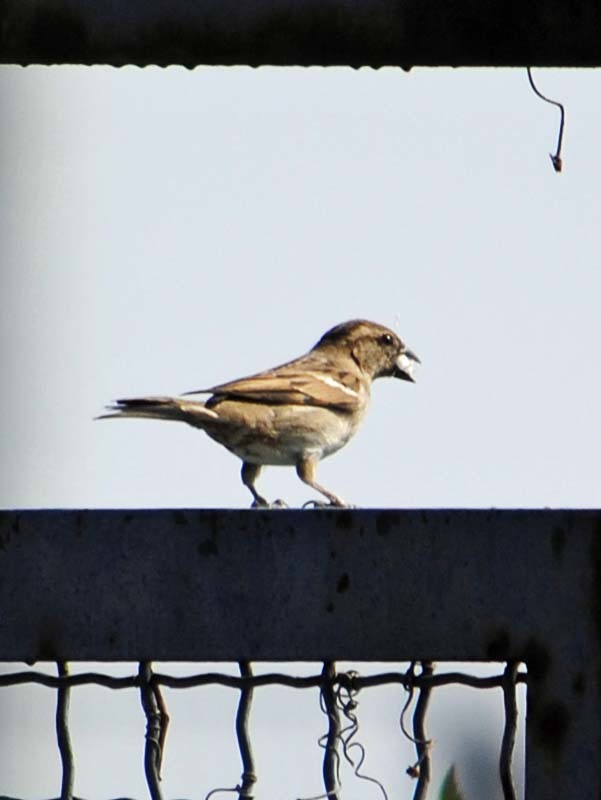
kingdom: Animalia
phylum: Chordata
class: Aves
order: Passeriformes
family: Passeridae
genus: Passer
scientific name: Passer domesticus
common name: House sparrow
